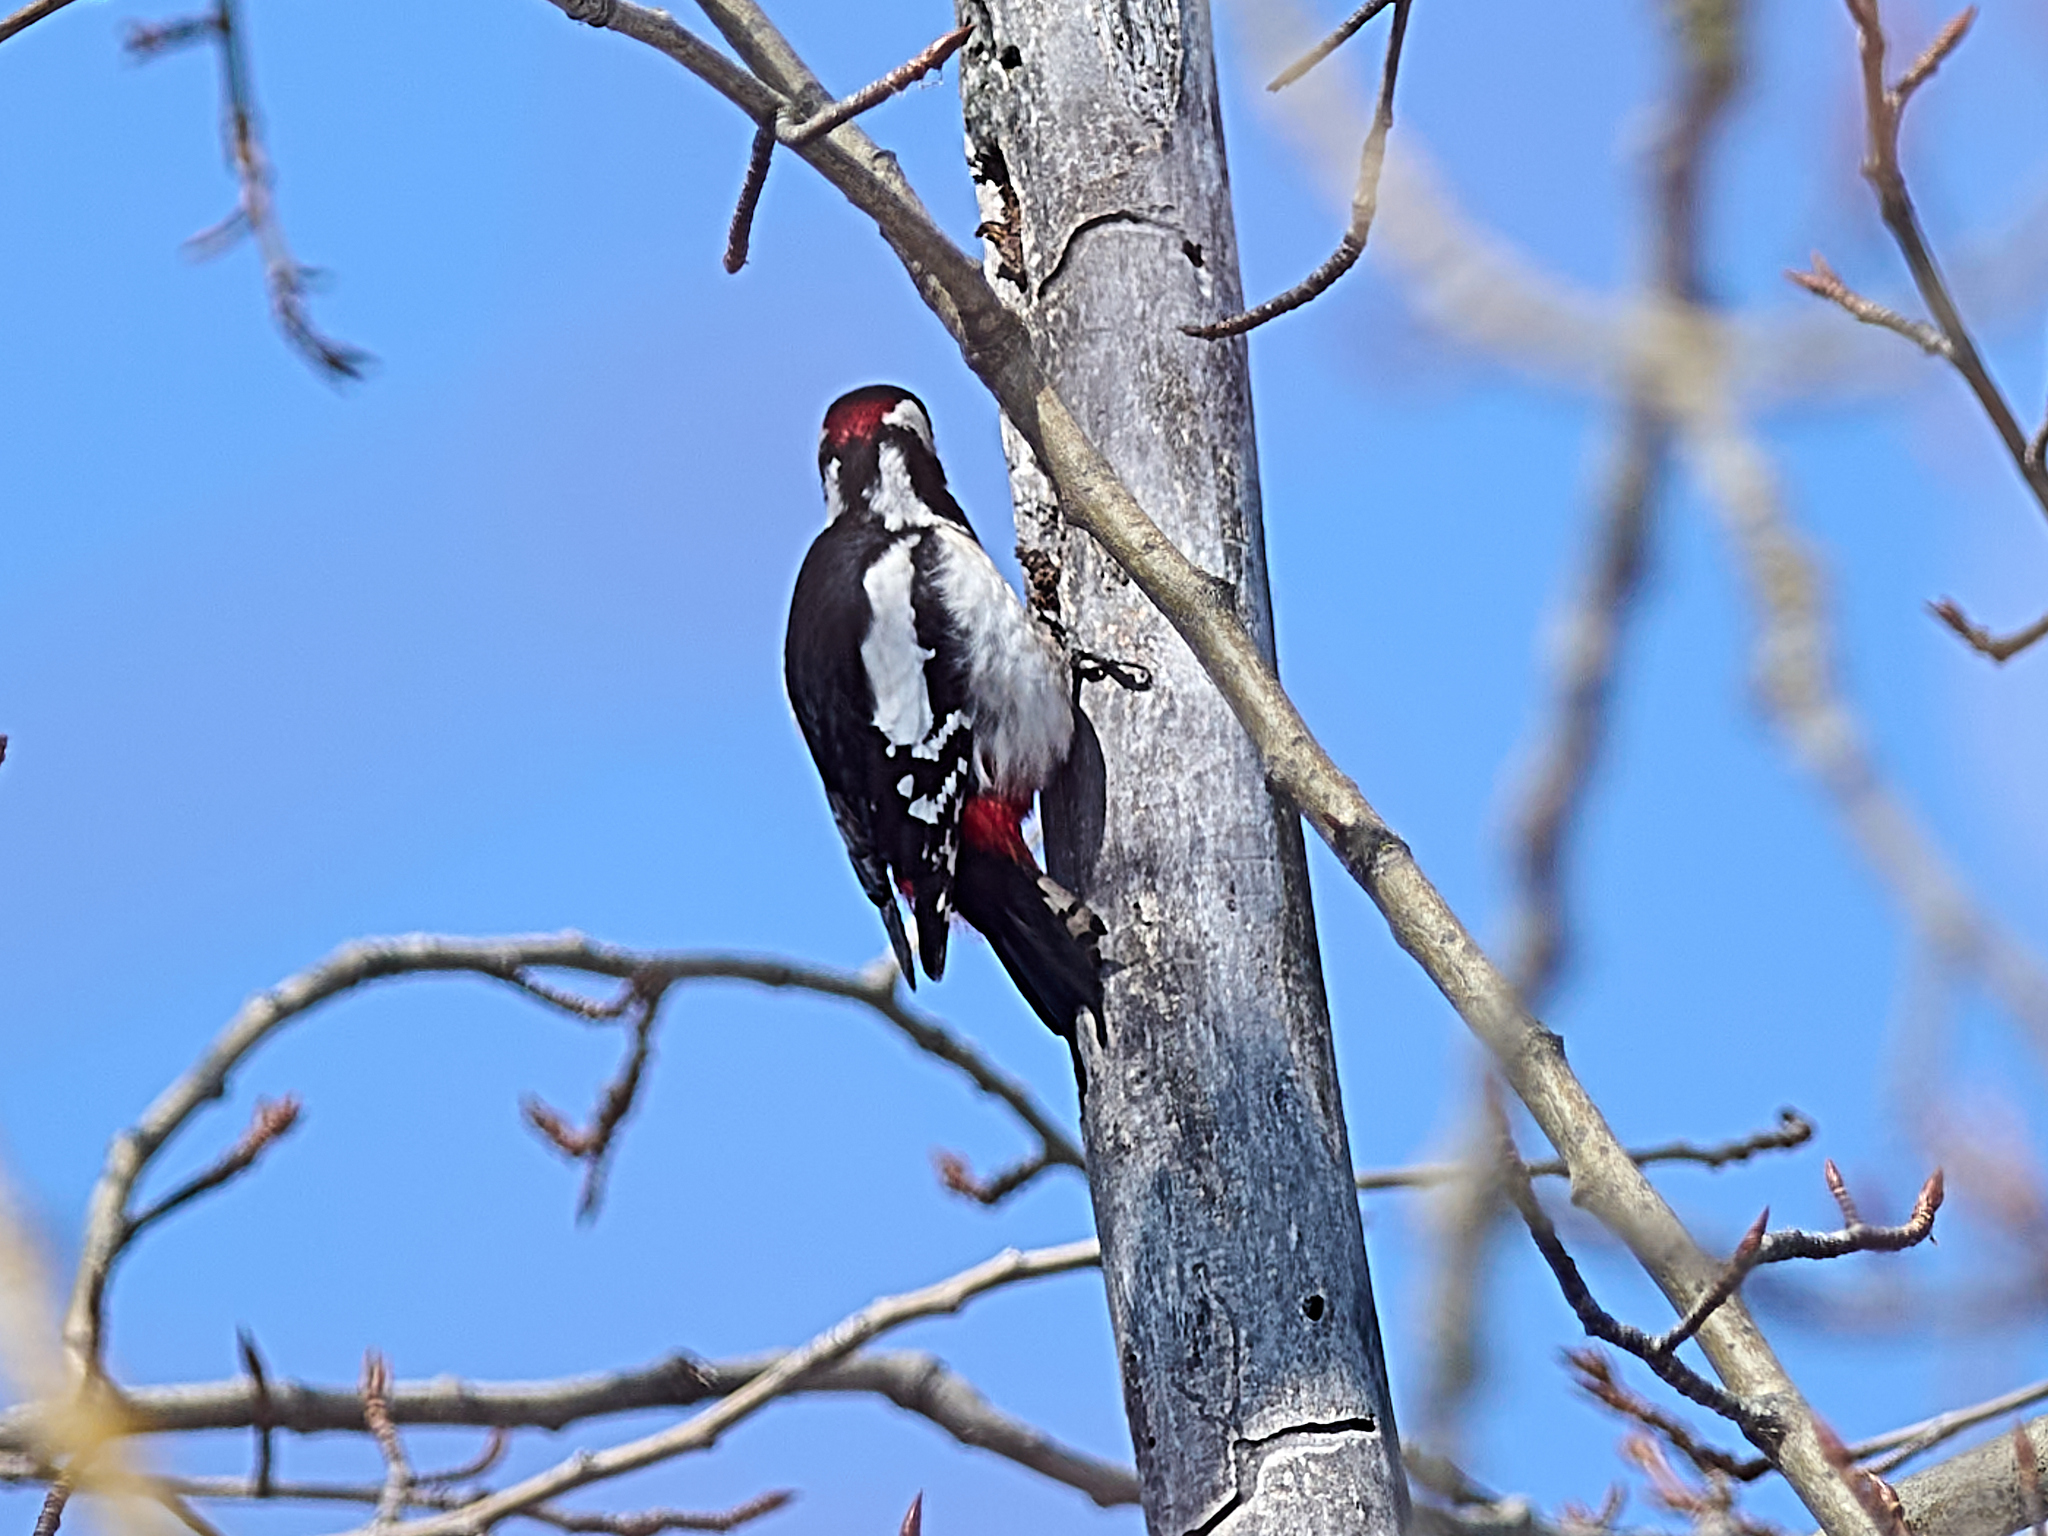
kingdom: Animalia
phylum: Chordata
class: Aves
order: Piciformes
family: Picidae
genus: Dendrocopos
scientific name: Dendrocopos major
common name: Great spotted woodpecker
